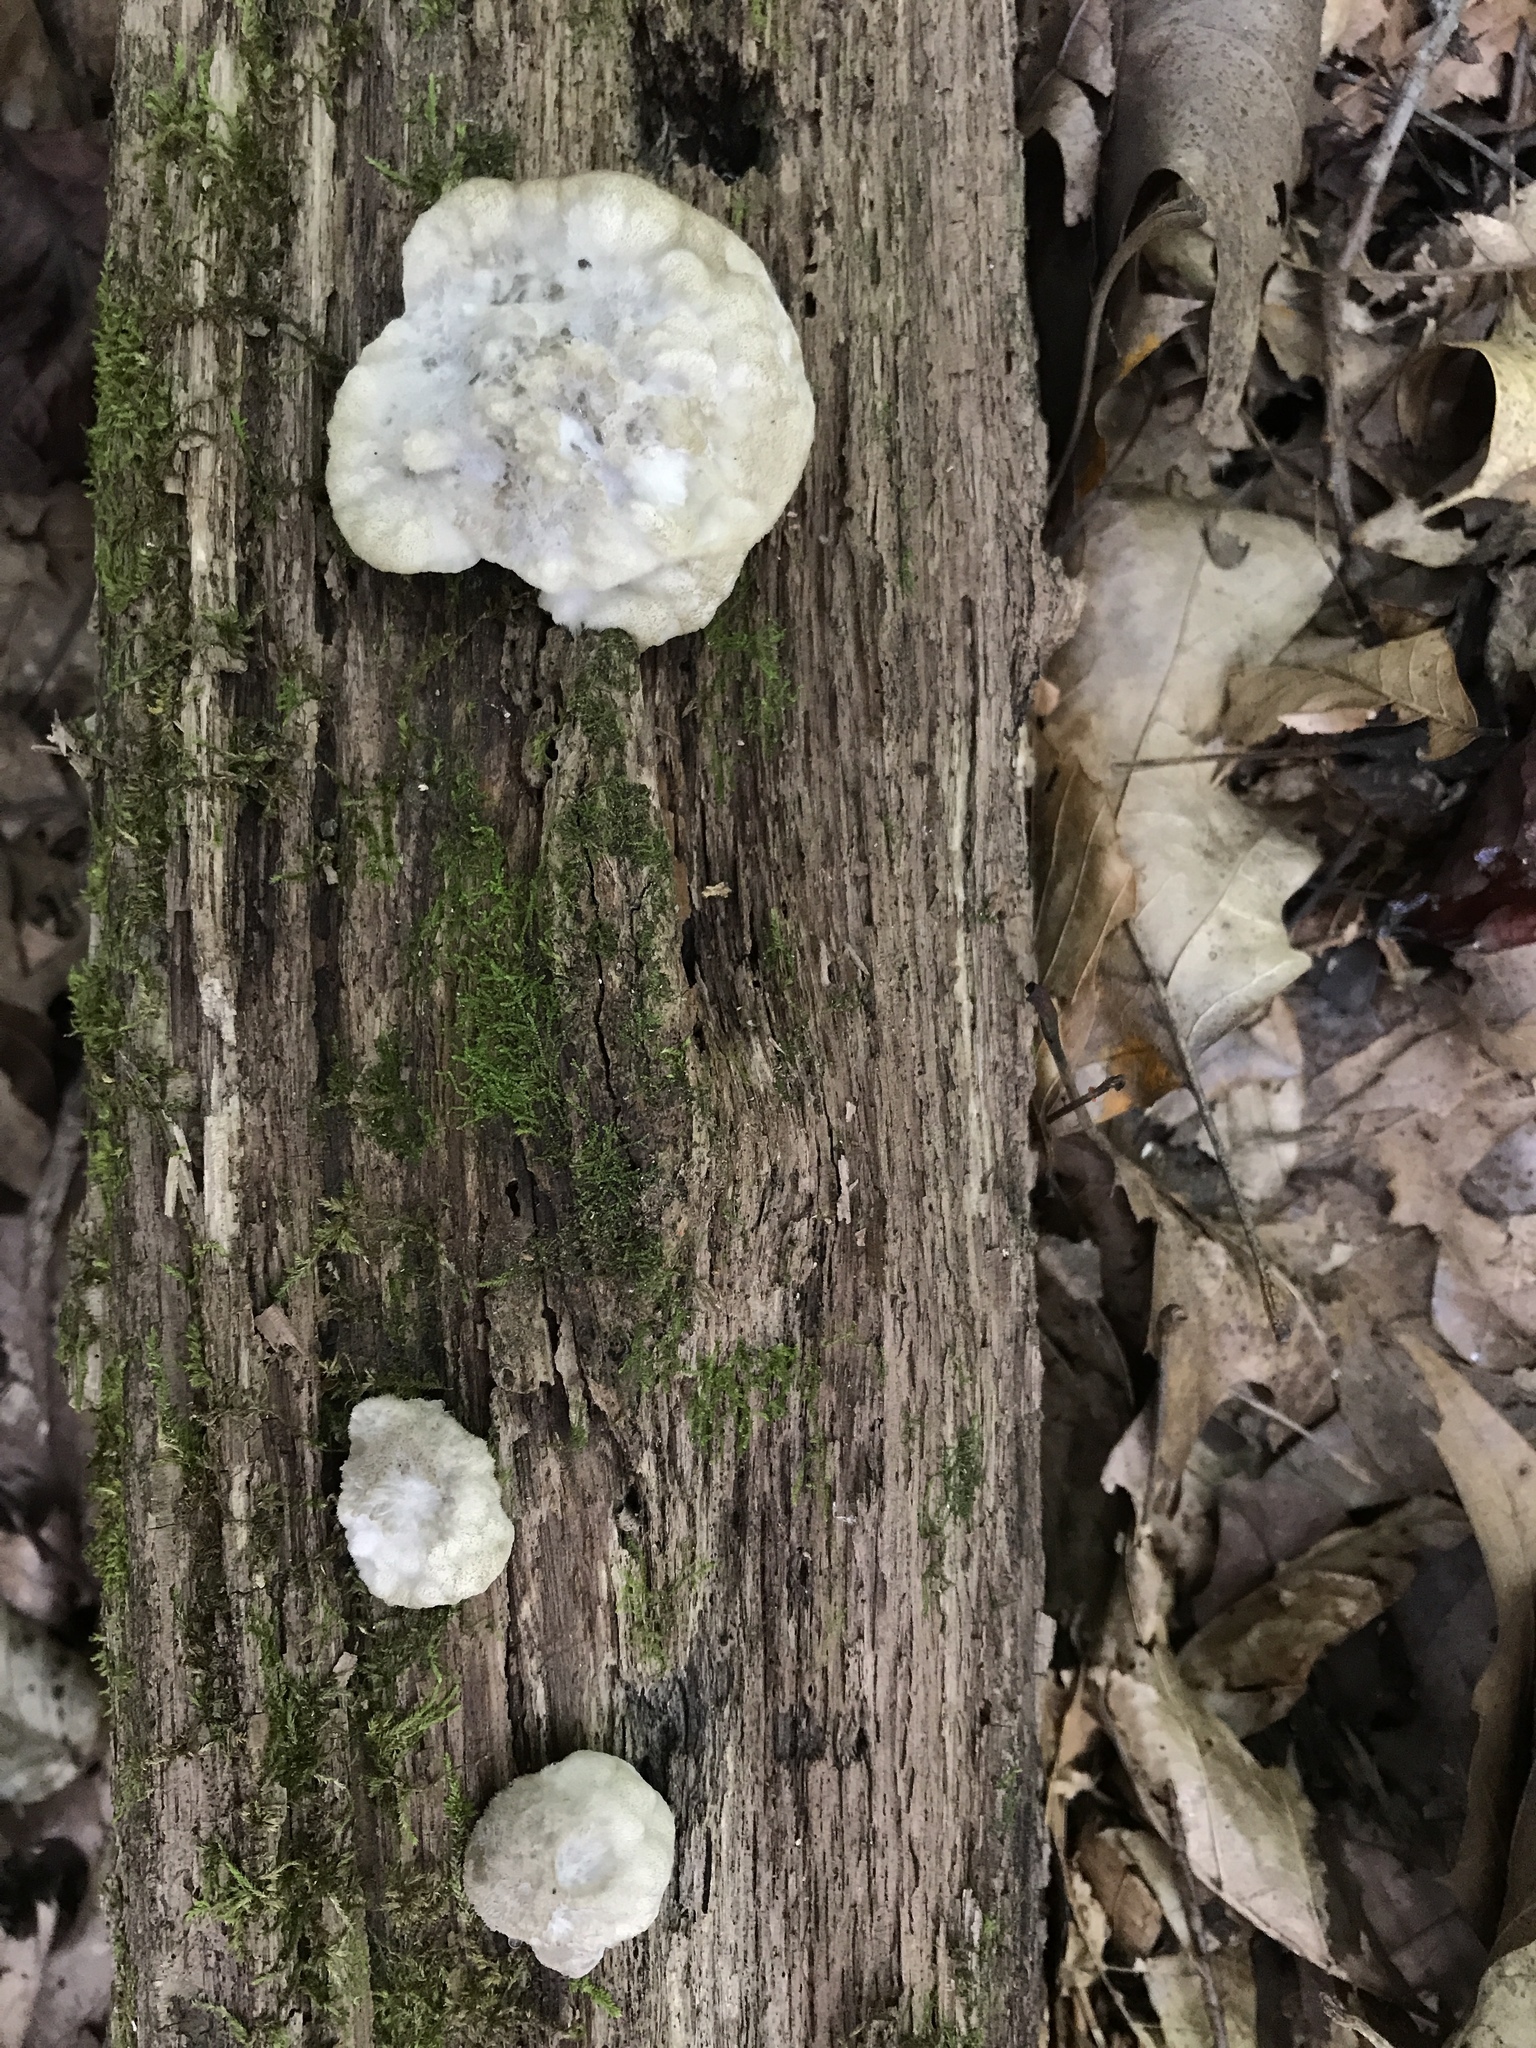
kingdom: Fungi
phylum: Basidiomycota
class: Agaricomycetes
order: Polyporales
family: Fomitopsidaceae
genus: Niveoporofomes
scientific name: Niveoporofomes spraguei
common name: Green cheese polypore
